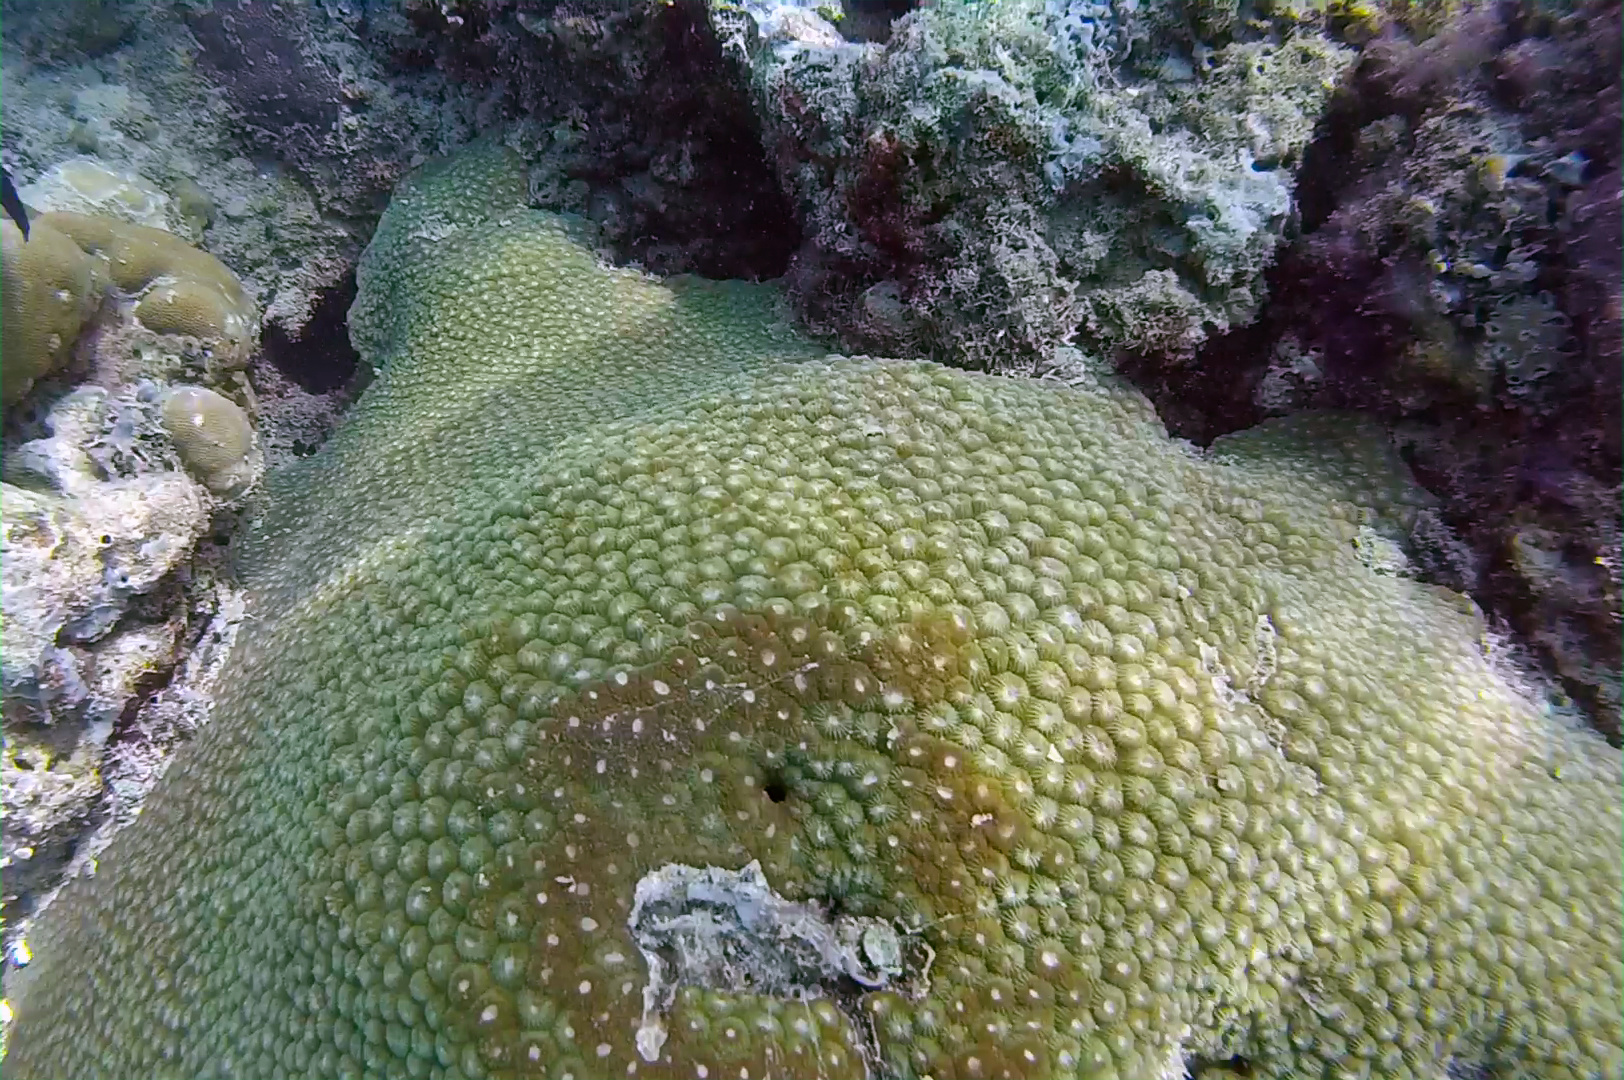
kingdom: Animalia
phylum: Cnidaria
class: Anthozoa
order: Scleractinia
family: Diploastraeidae
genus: Diploastrea
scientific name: Diploastrea heliopora
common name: Double-star coral
